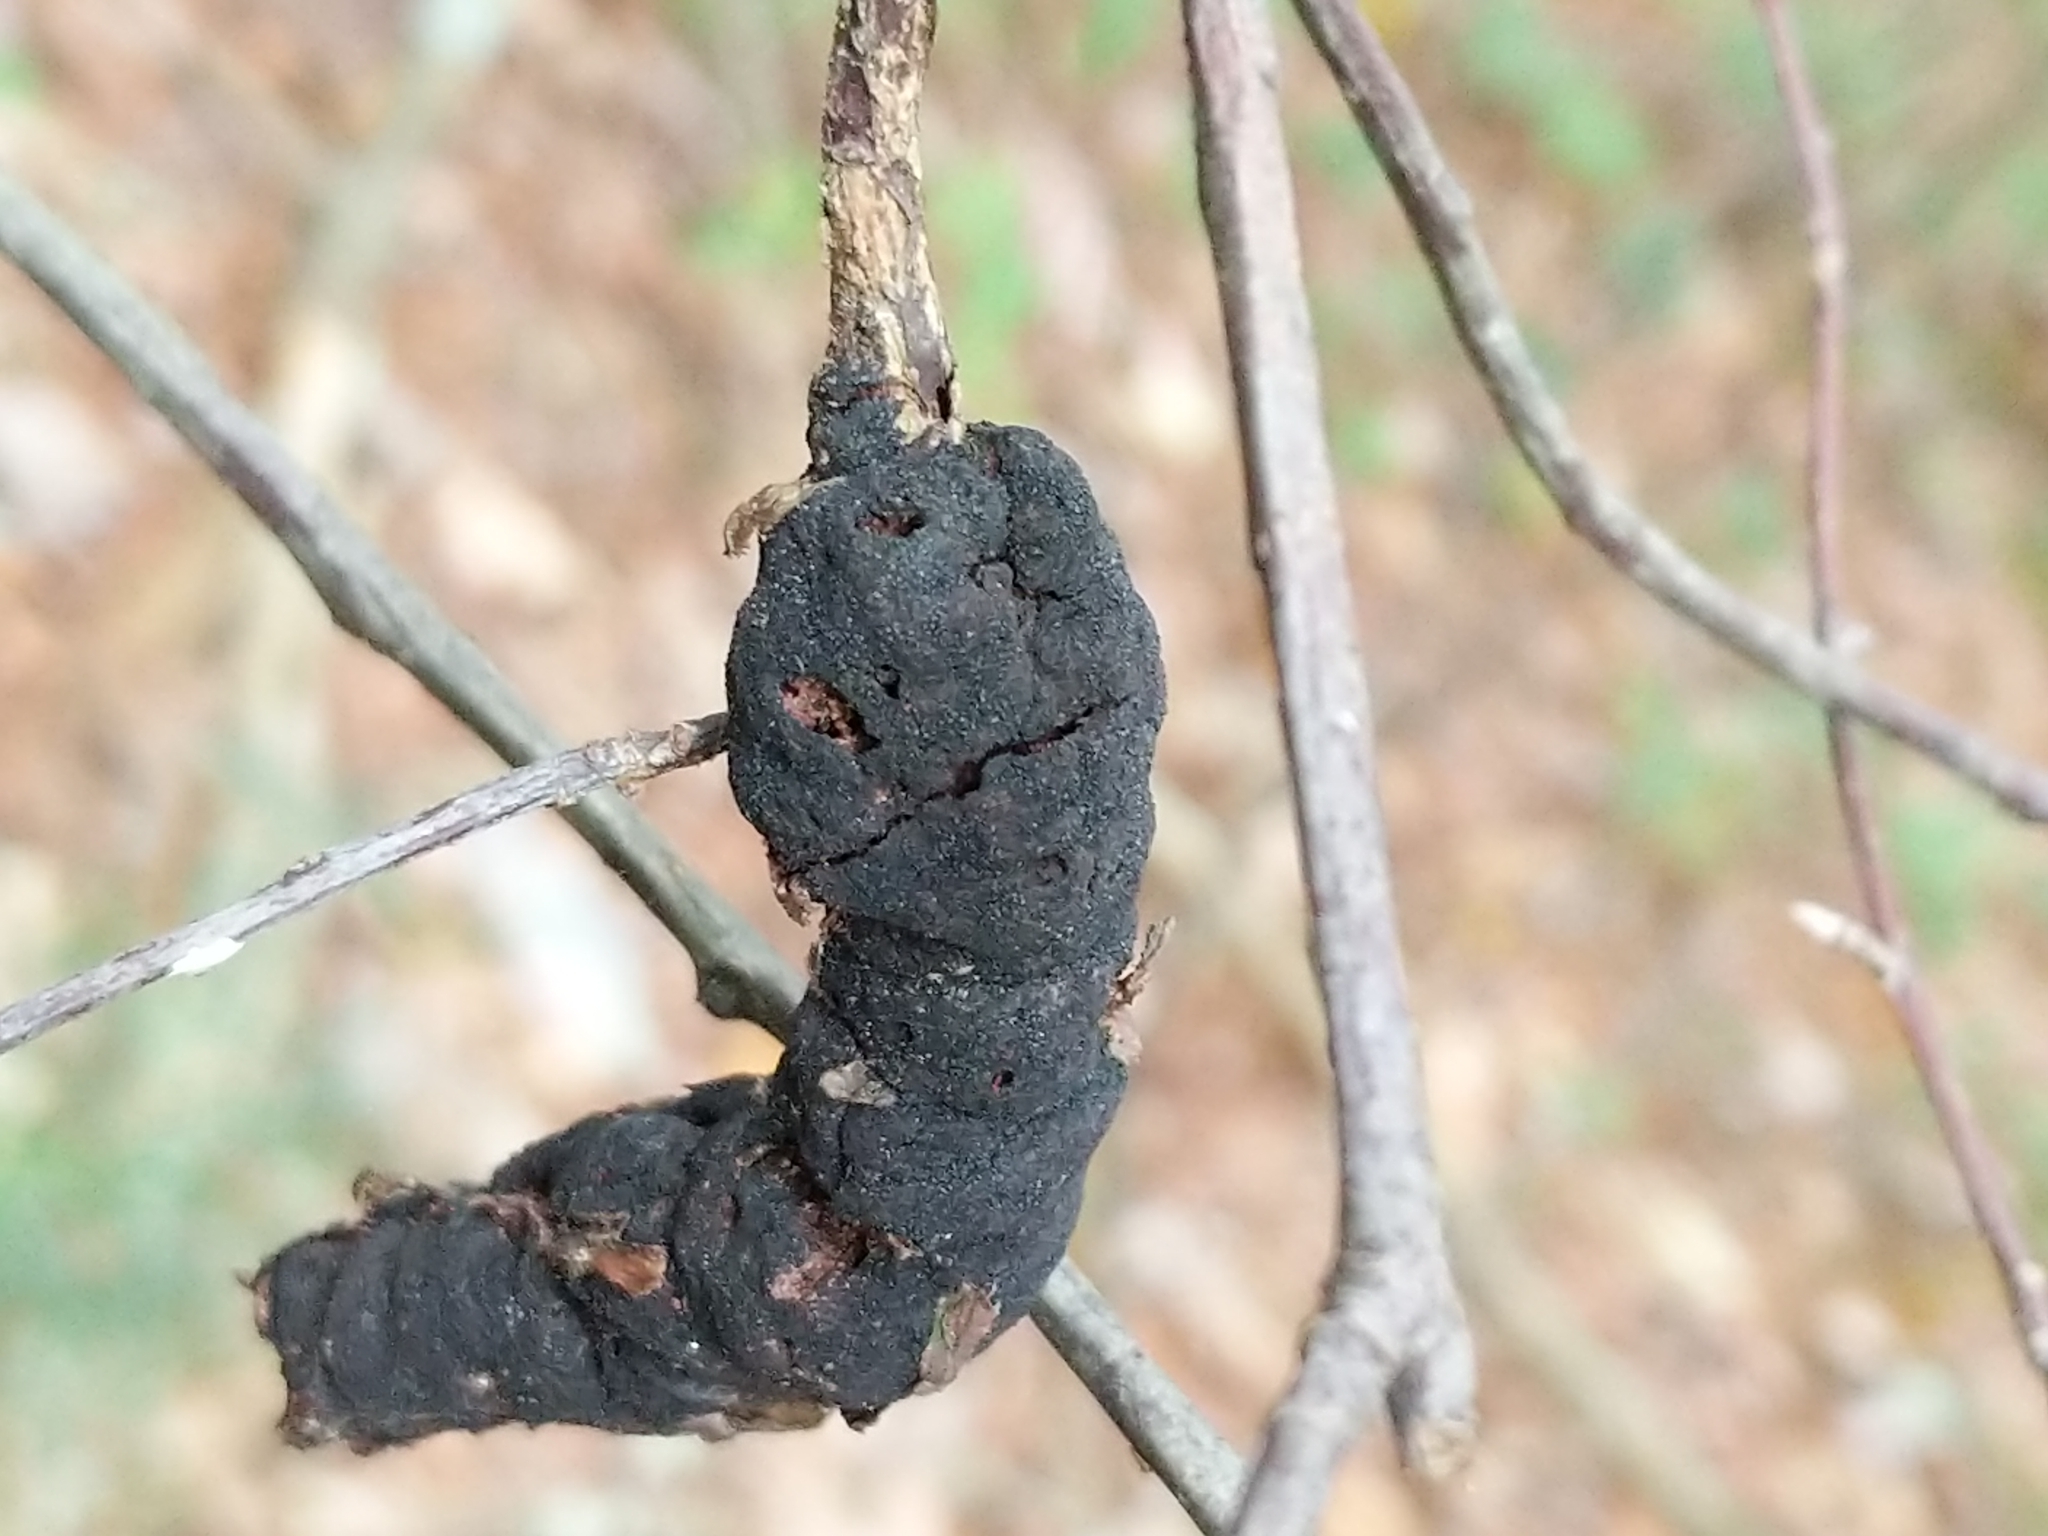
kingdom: Fungi
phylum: Ascomycota
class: Dothideomycetes
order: Venturiales
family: Venturiaceae
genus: Apiosporina
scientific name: Apiosporina morbosa
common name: Black knot
